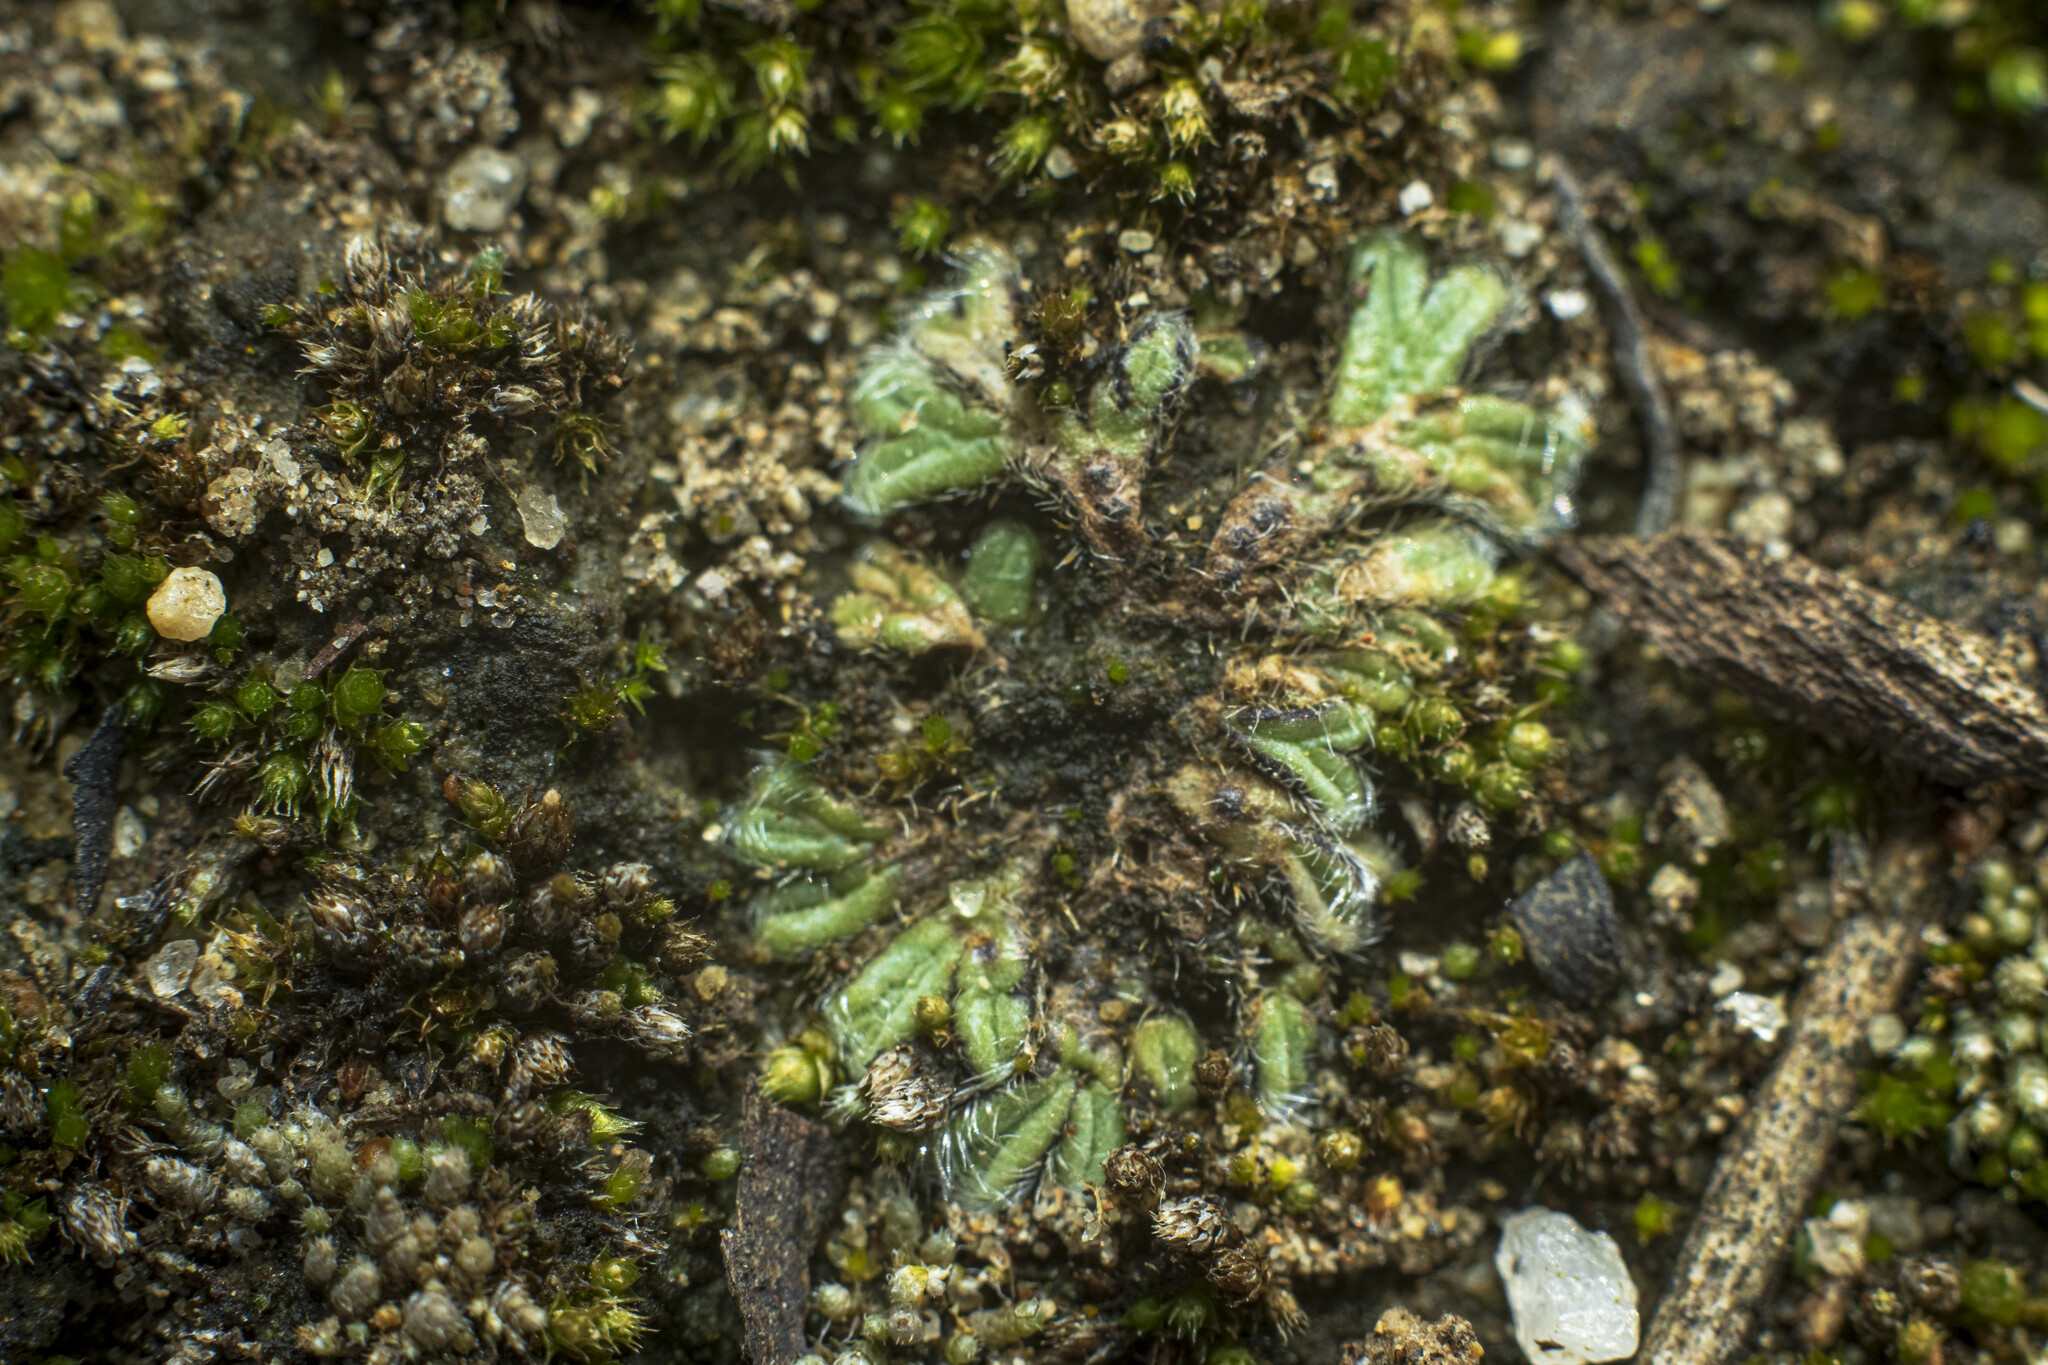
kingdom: Plantae
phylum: Marchantiophyta
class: Marchantiopsida
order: Marchantiales
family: Ricciaceae
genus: Riccia
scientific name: Riccia trichocarpa
